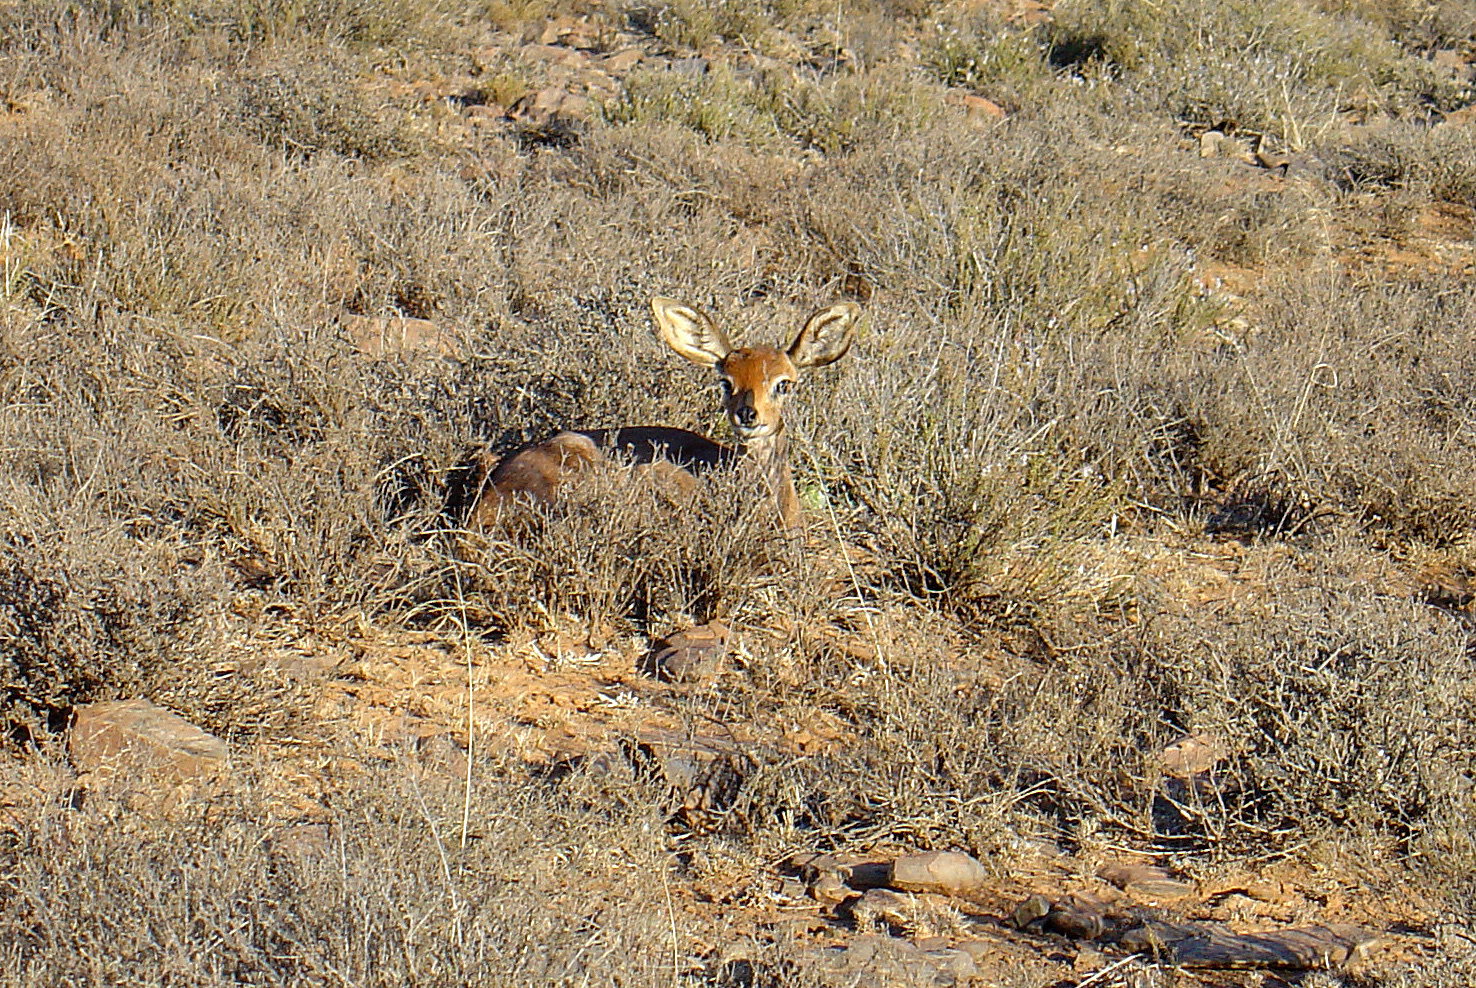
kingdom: Animalia
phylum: Chordata
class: Mammalia
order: Artiodactyla
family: Bovidae
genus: Raphicerus
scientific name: Raphicerus campestris
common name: Steenbok
